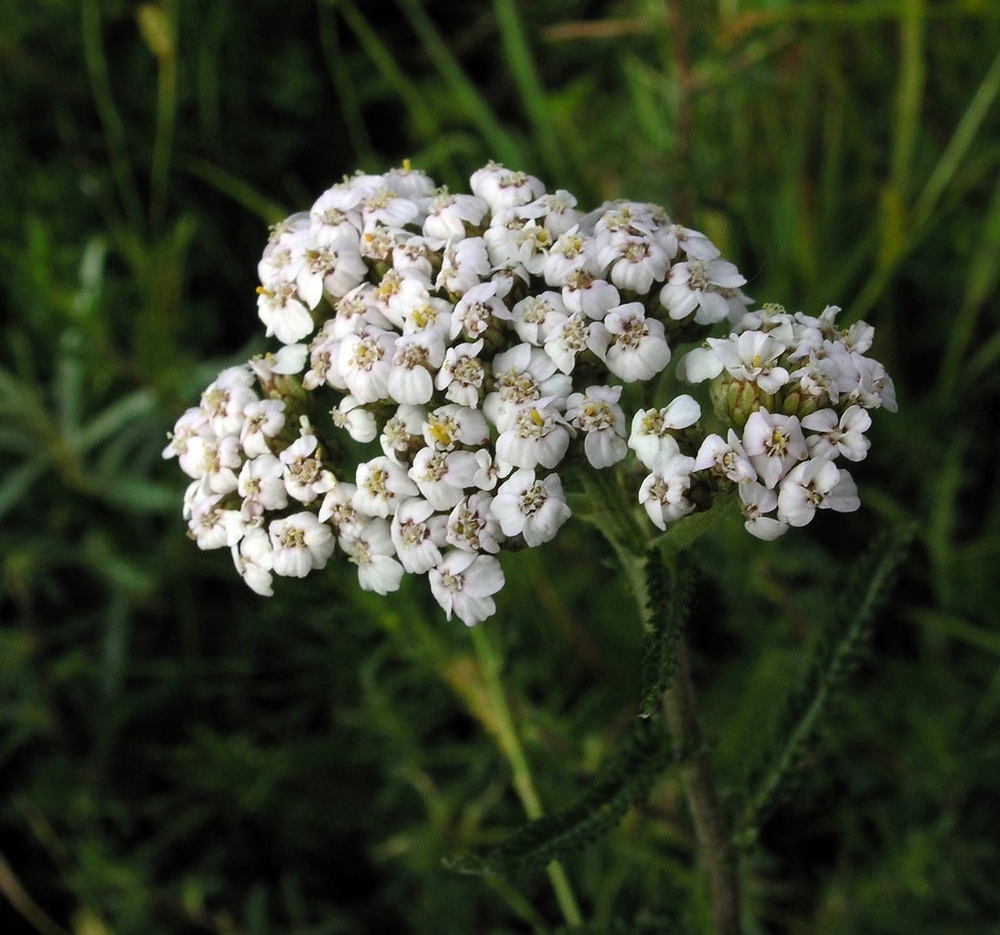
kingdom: Plantae
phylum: Tracheophyta
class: Magnoliopsida
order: Asterales
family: Asteraceae
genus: Achillea
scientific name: Achillea millefolium
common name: Yarrow
